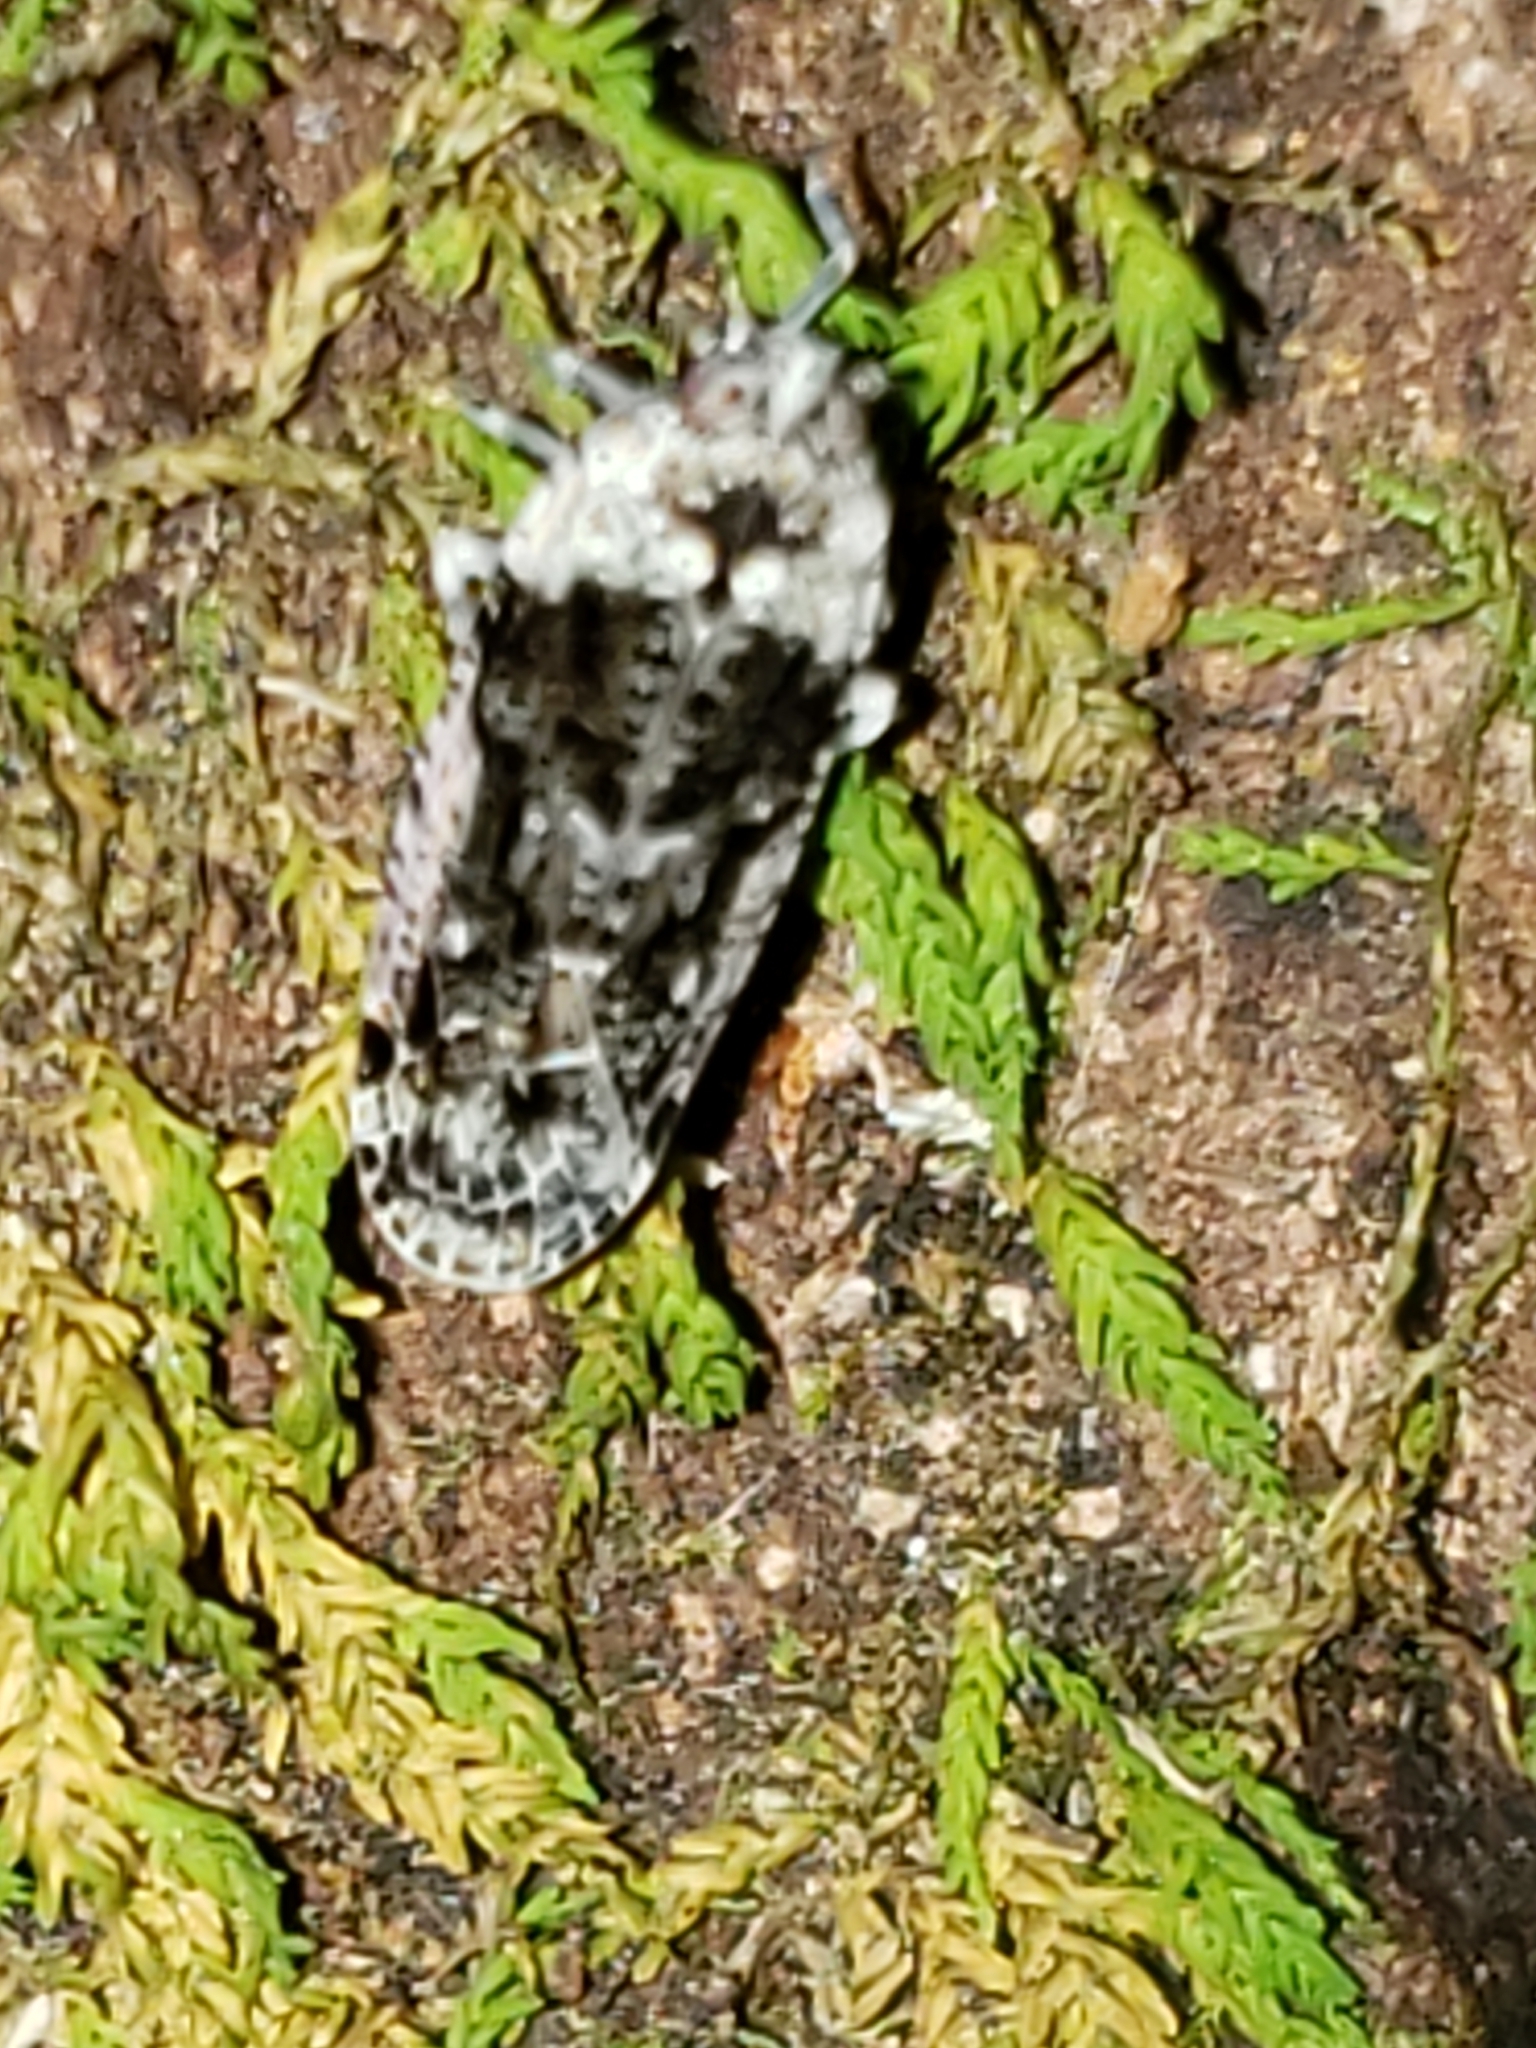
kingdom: Animalia
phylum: Arthropoda
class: Insecta
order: Hemiptera
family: Achilidae
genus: Catonia
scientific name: Catonia nava
